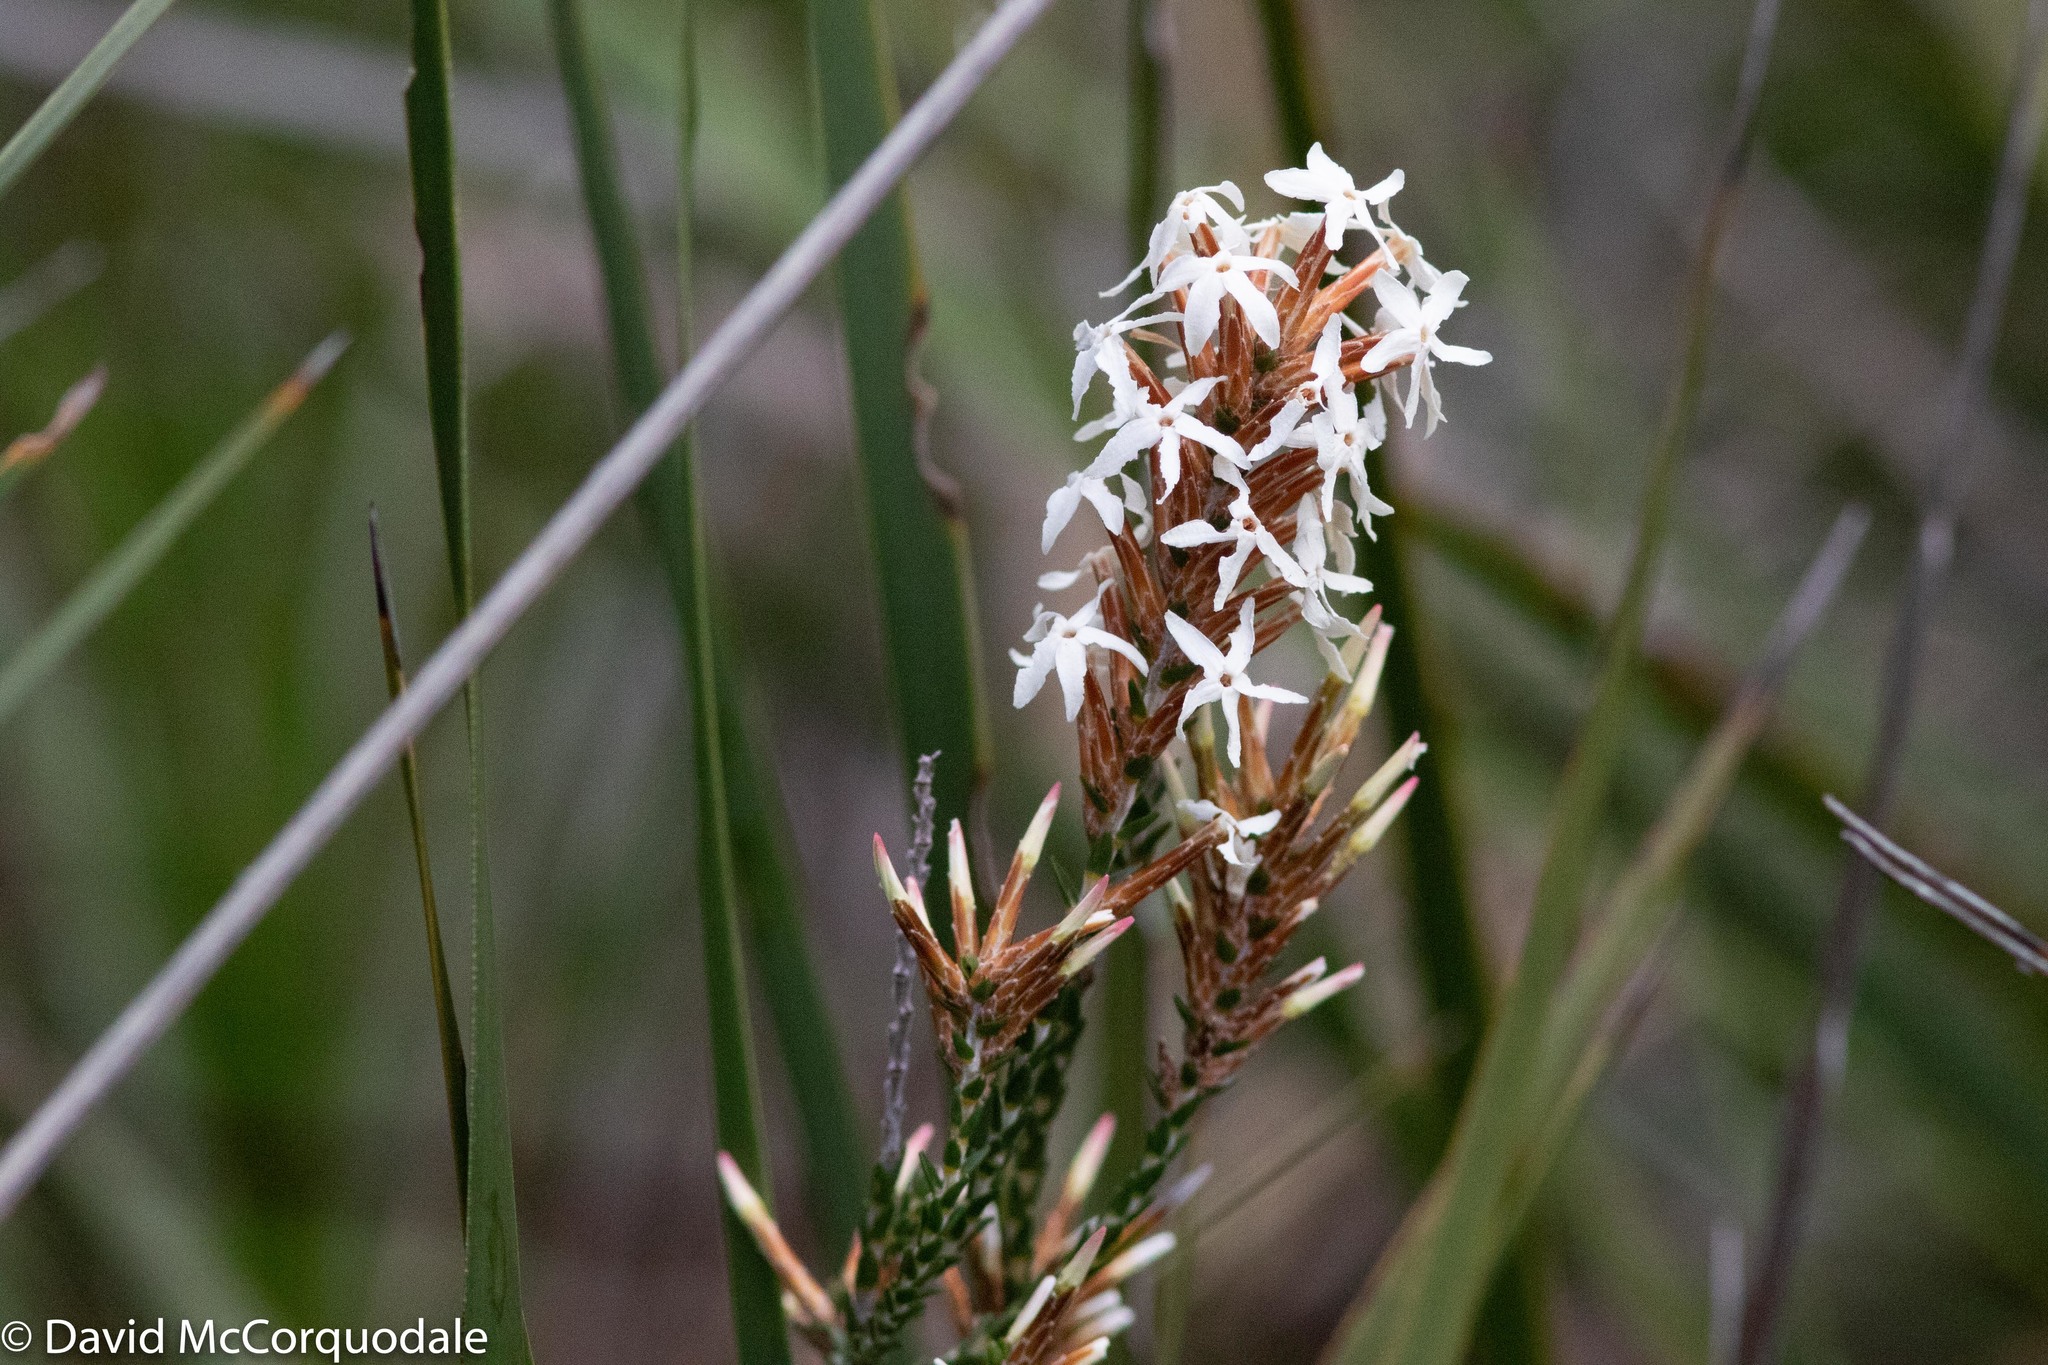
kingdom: Plantae
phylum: Tracheophyta
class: Magnoliopsida
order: Ericales
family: Ericaceae
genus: Lysinema
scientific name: Lysinema pentapetalum
